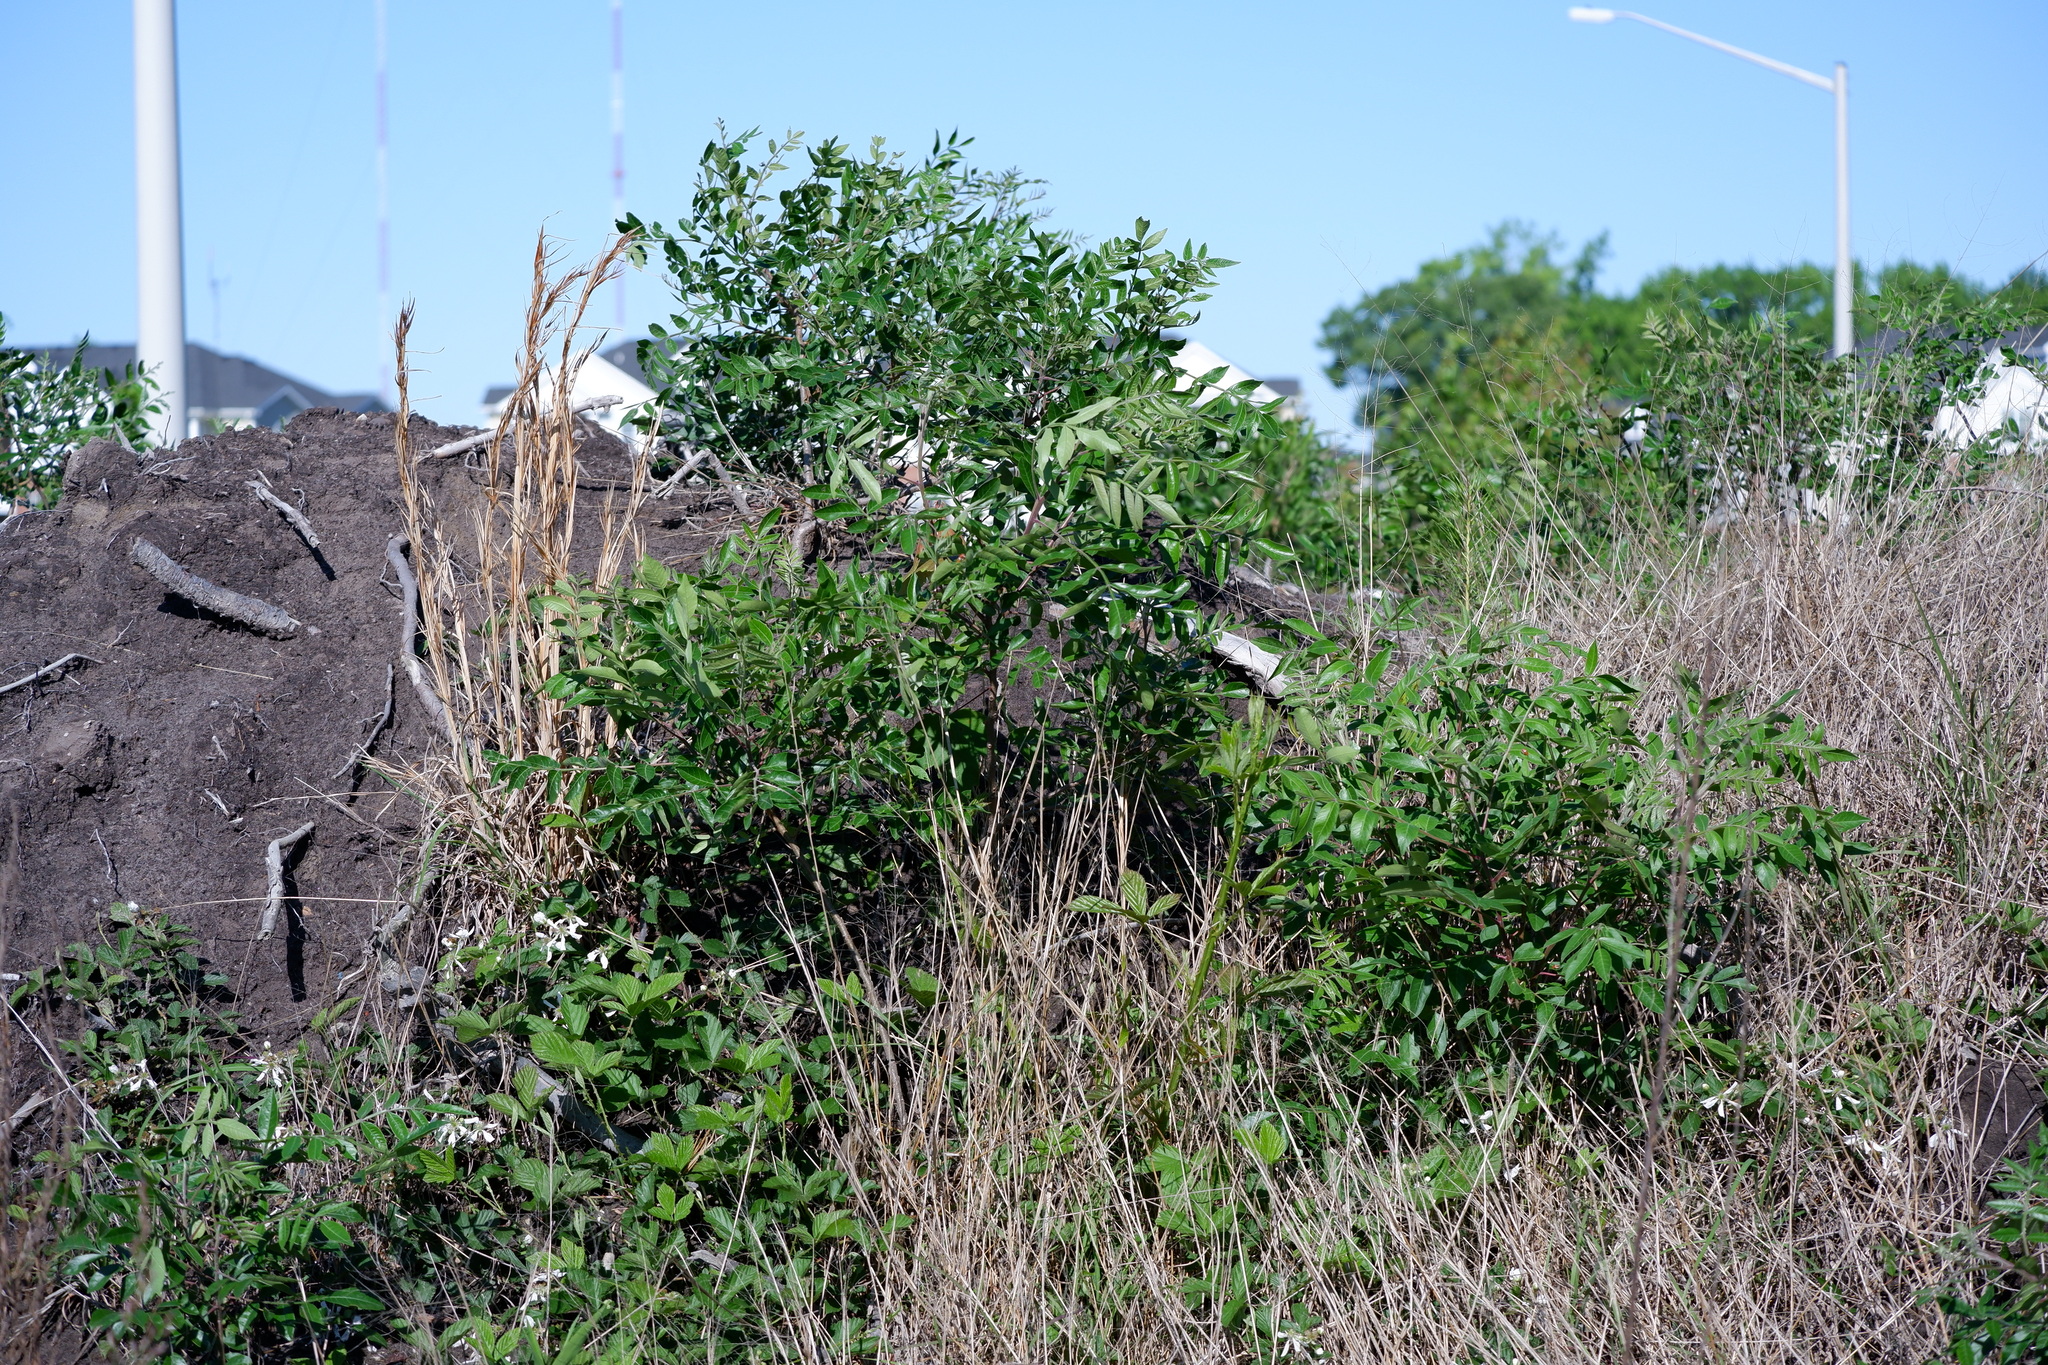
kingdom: Plantae
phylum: Tracheophyta
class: Magnoliopsida
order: Sapindales
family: Anacardiaceae
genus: Rhus
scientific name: Rhus copallina
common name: Shining sumac
